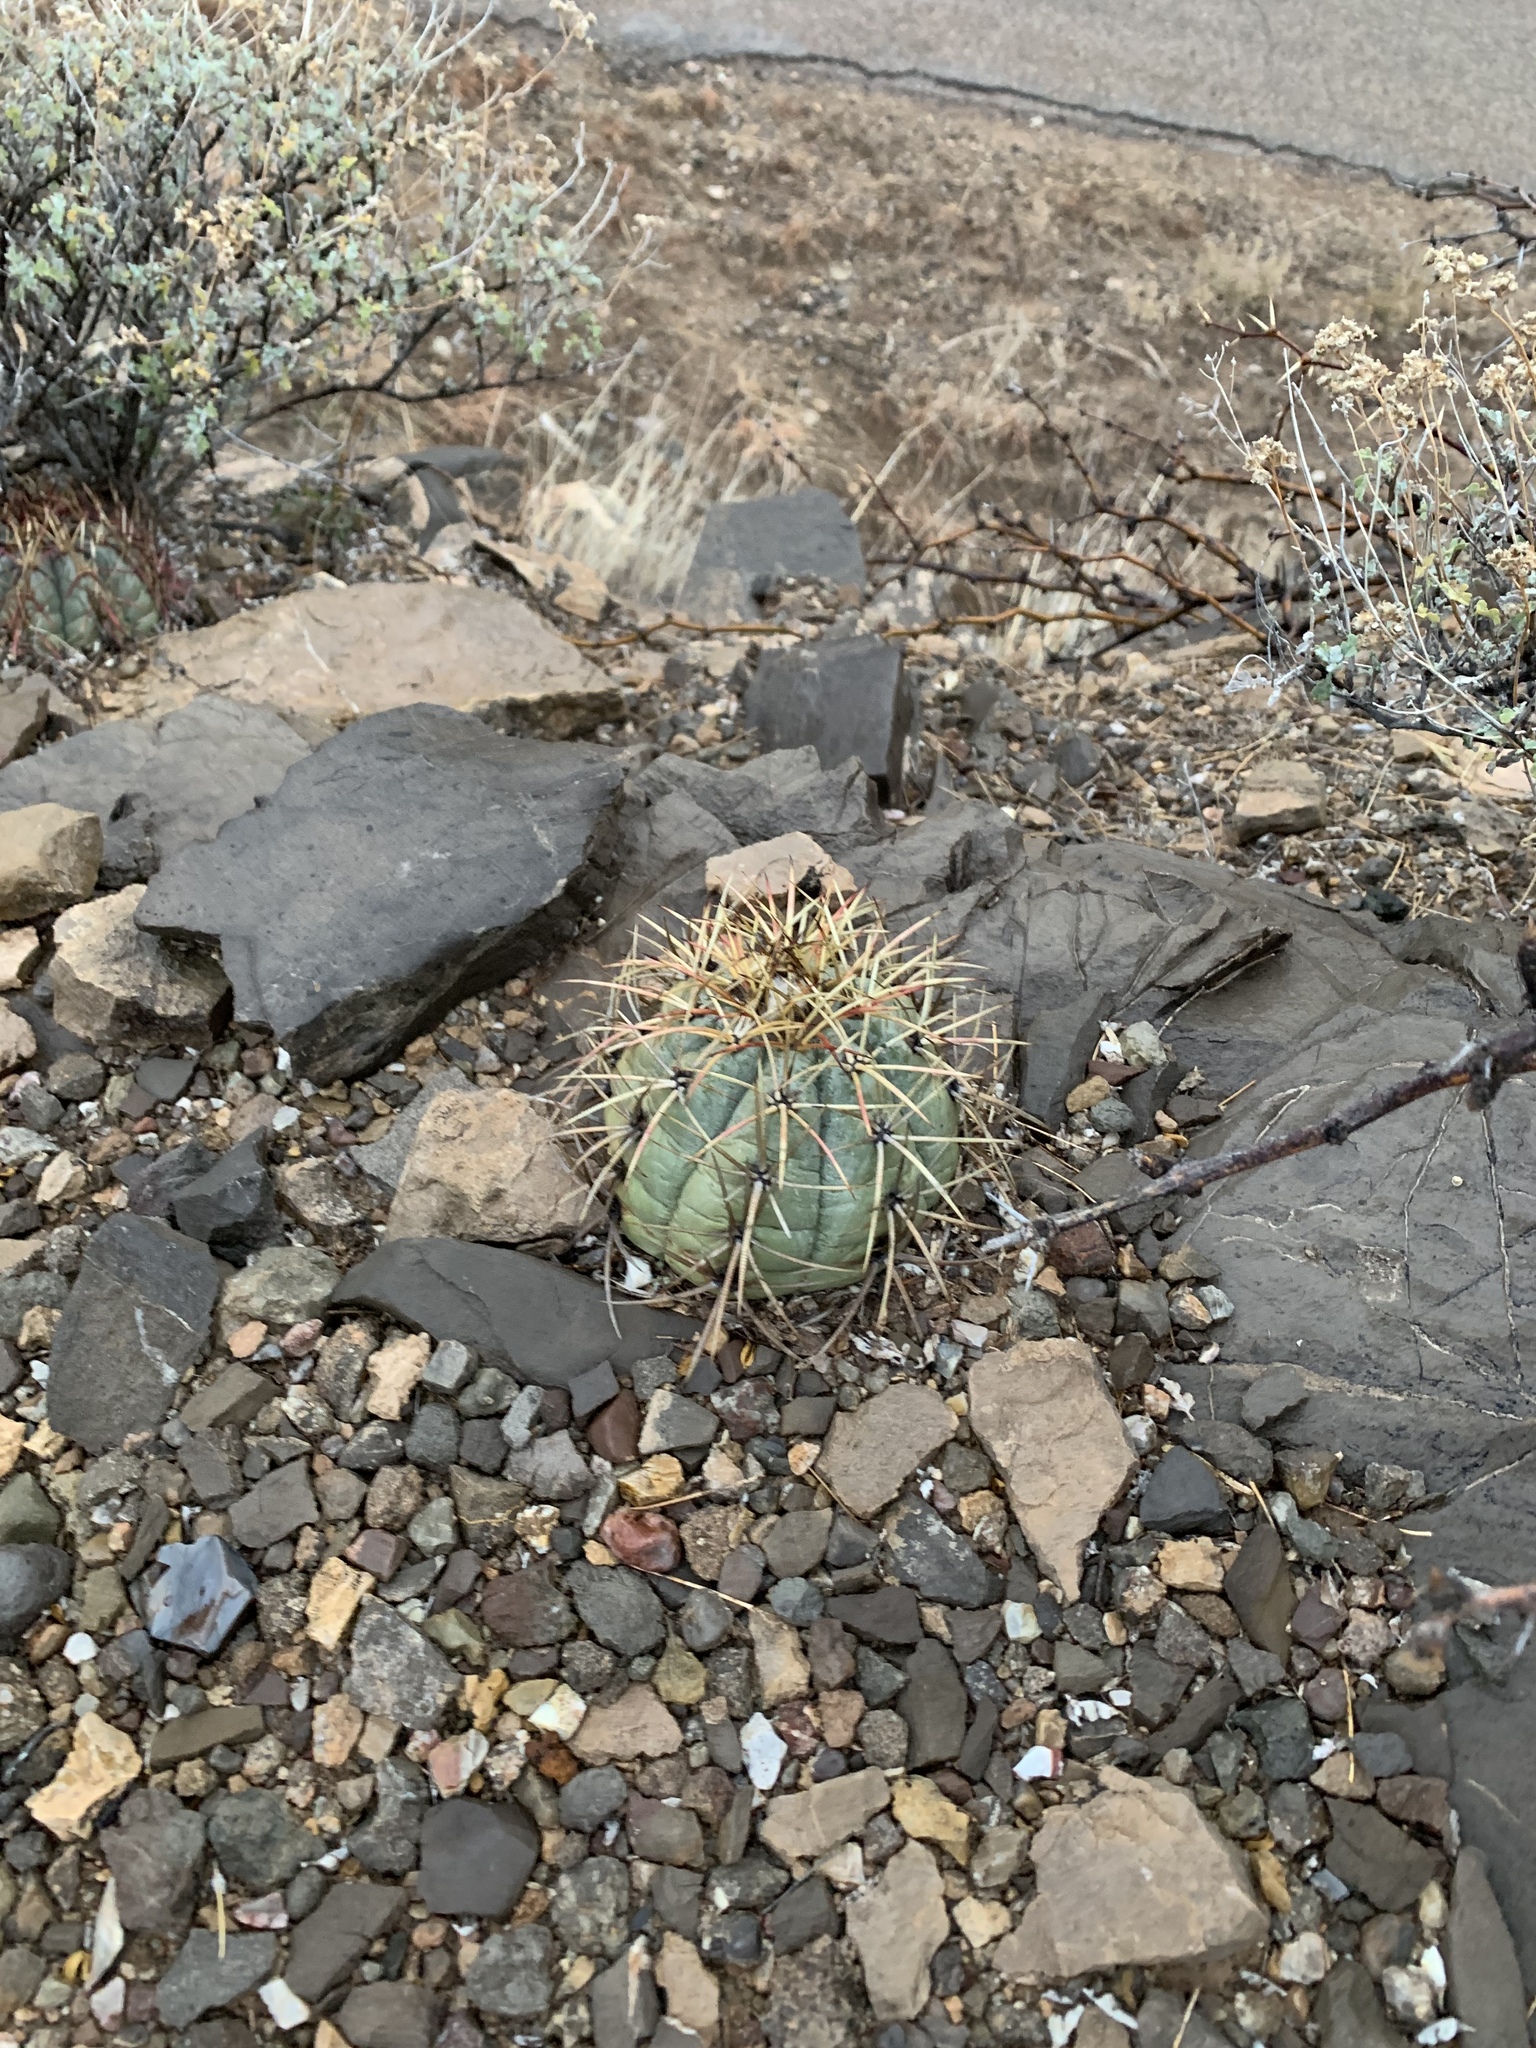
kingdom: Plantae
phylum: Tracheophyta
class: Magnoliopsida
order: Caryophyllales
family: Cactaceae
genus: Echinocactus
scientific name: Echinocactus horizonthalonius
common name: Devilshead
